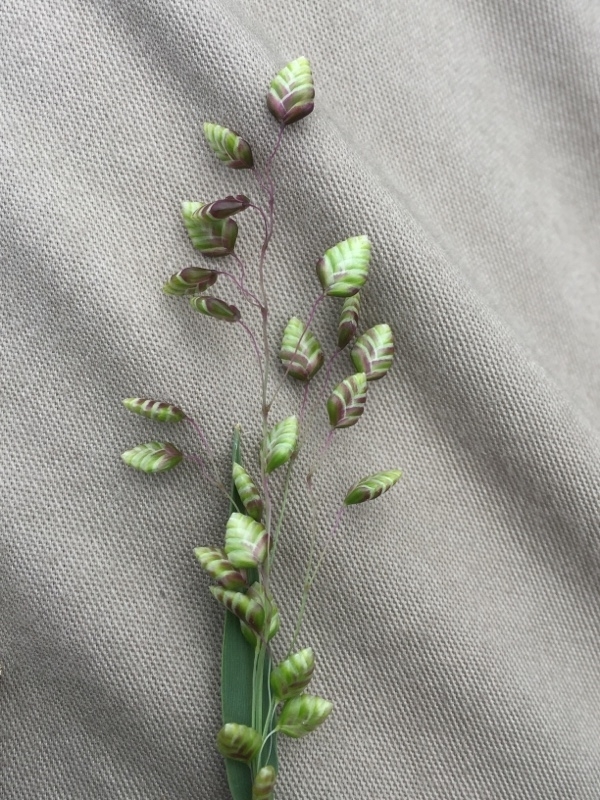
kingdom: Plantae
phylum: Tracheophyta
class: Liliopsida
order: Poales
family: Poaceae
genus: Briza
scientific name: Briza media
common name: Quaking grass
